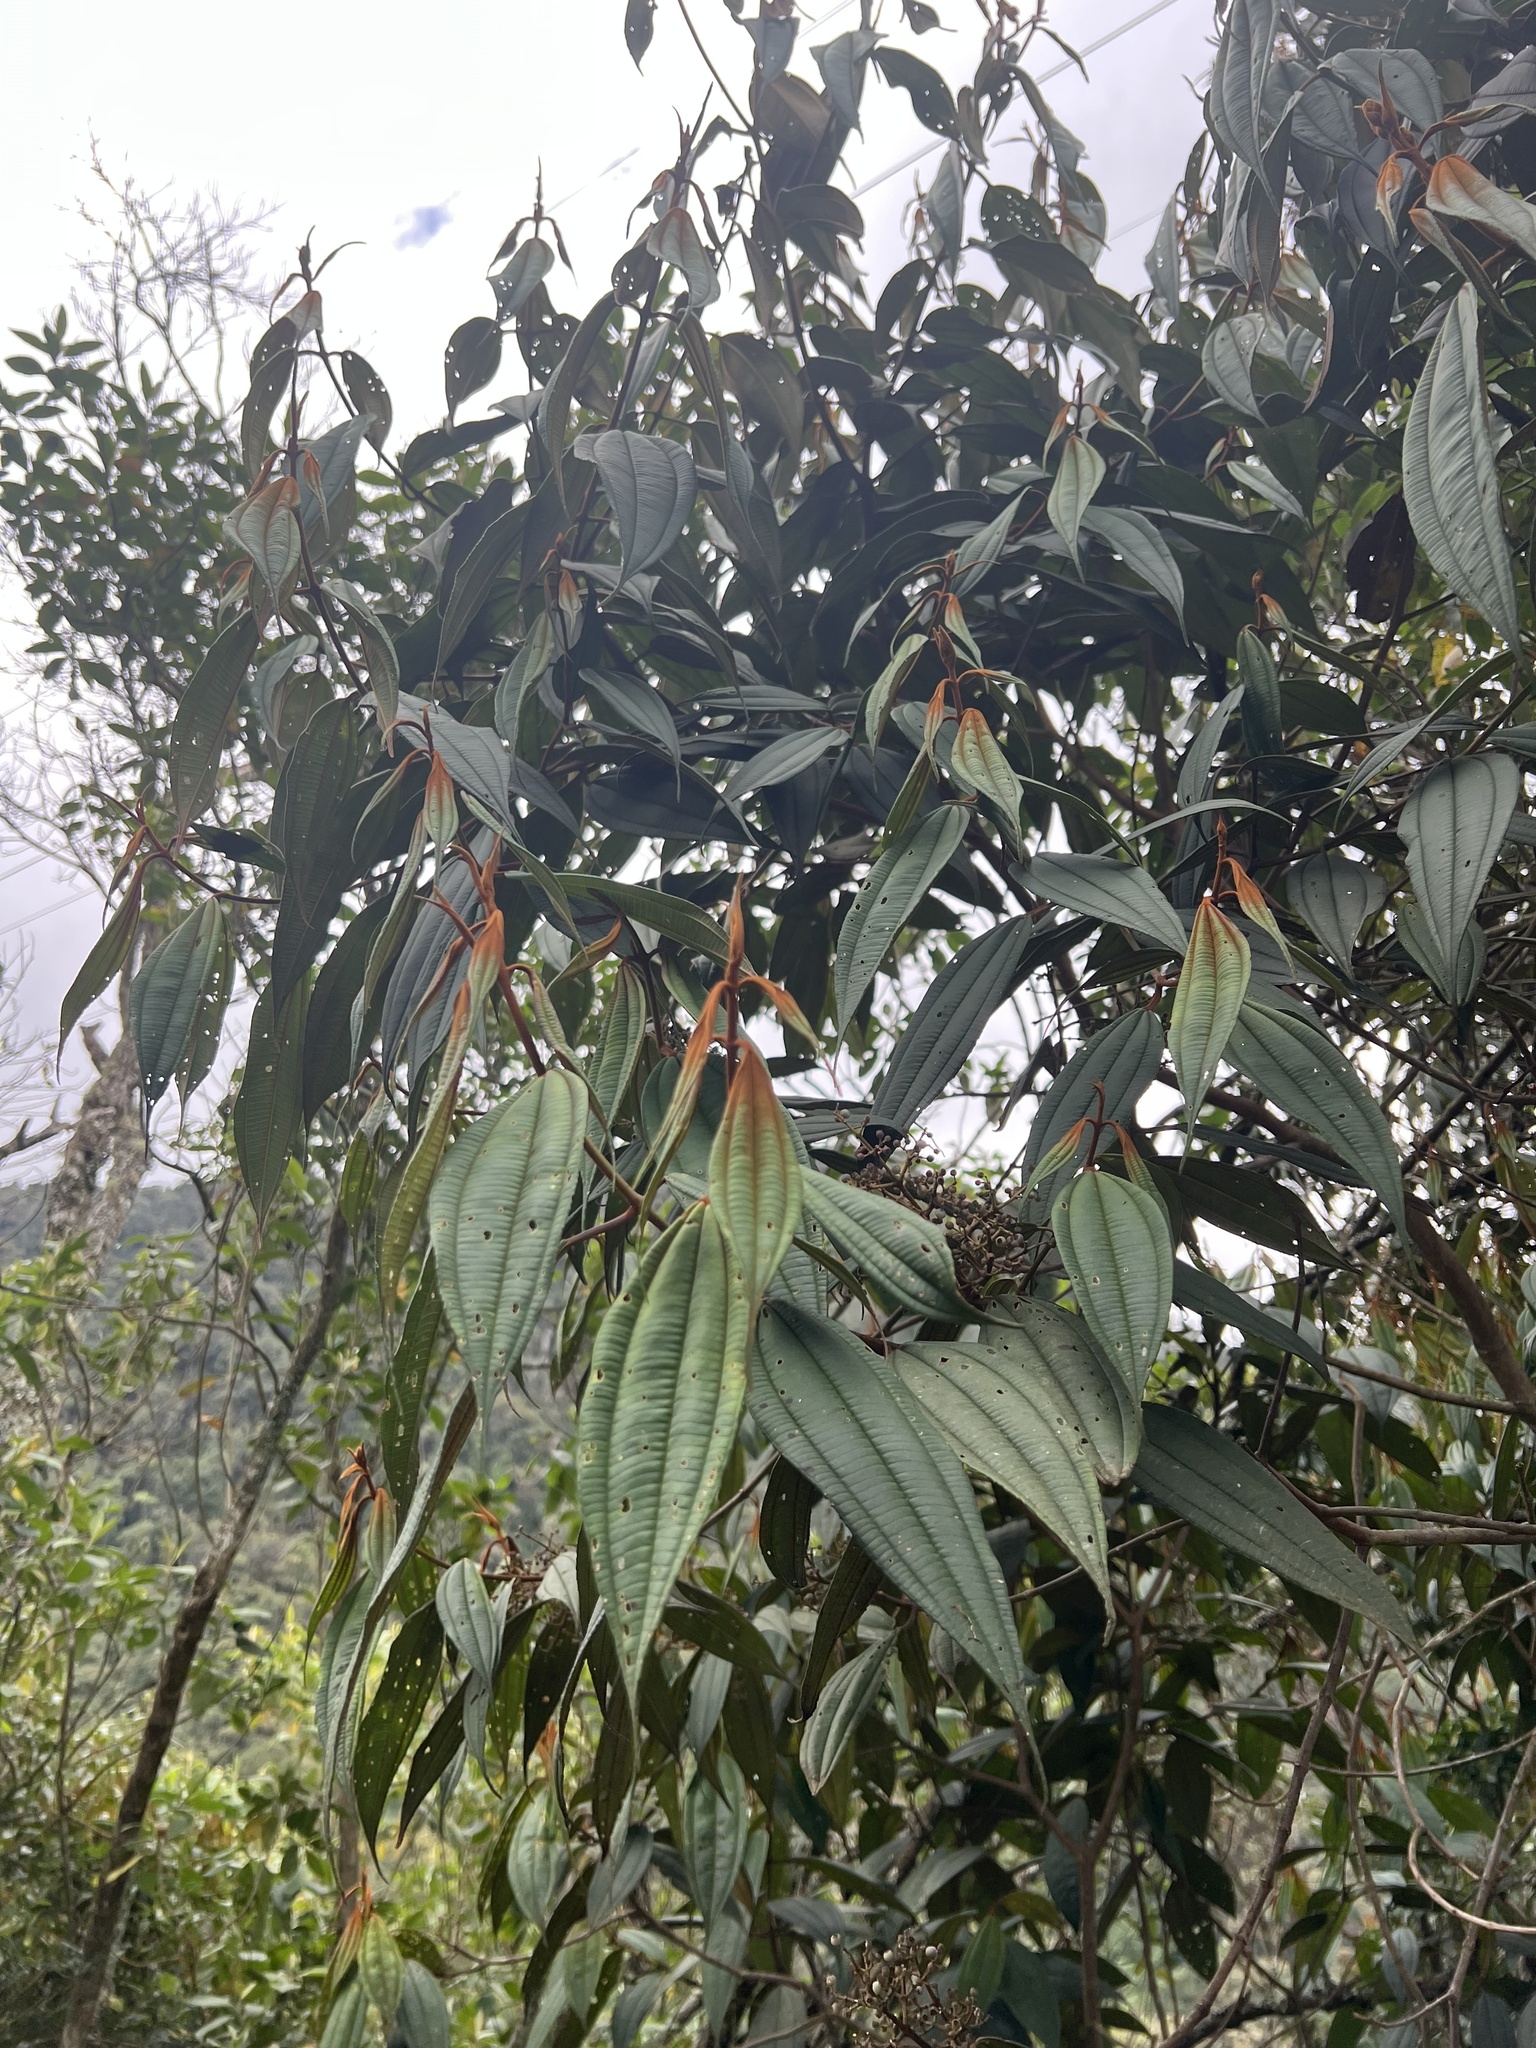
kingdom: Plantae
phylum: Tracheophyta
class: Magnoliopsida
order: Myrtales
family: Melastomataceae
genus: Miconia
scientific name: Miconia miocarpa
